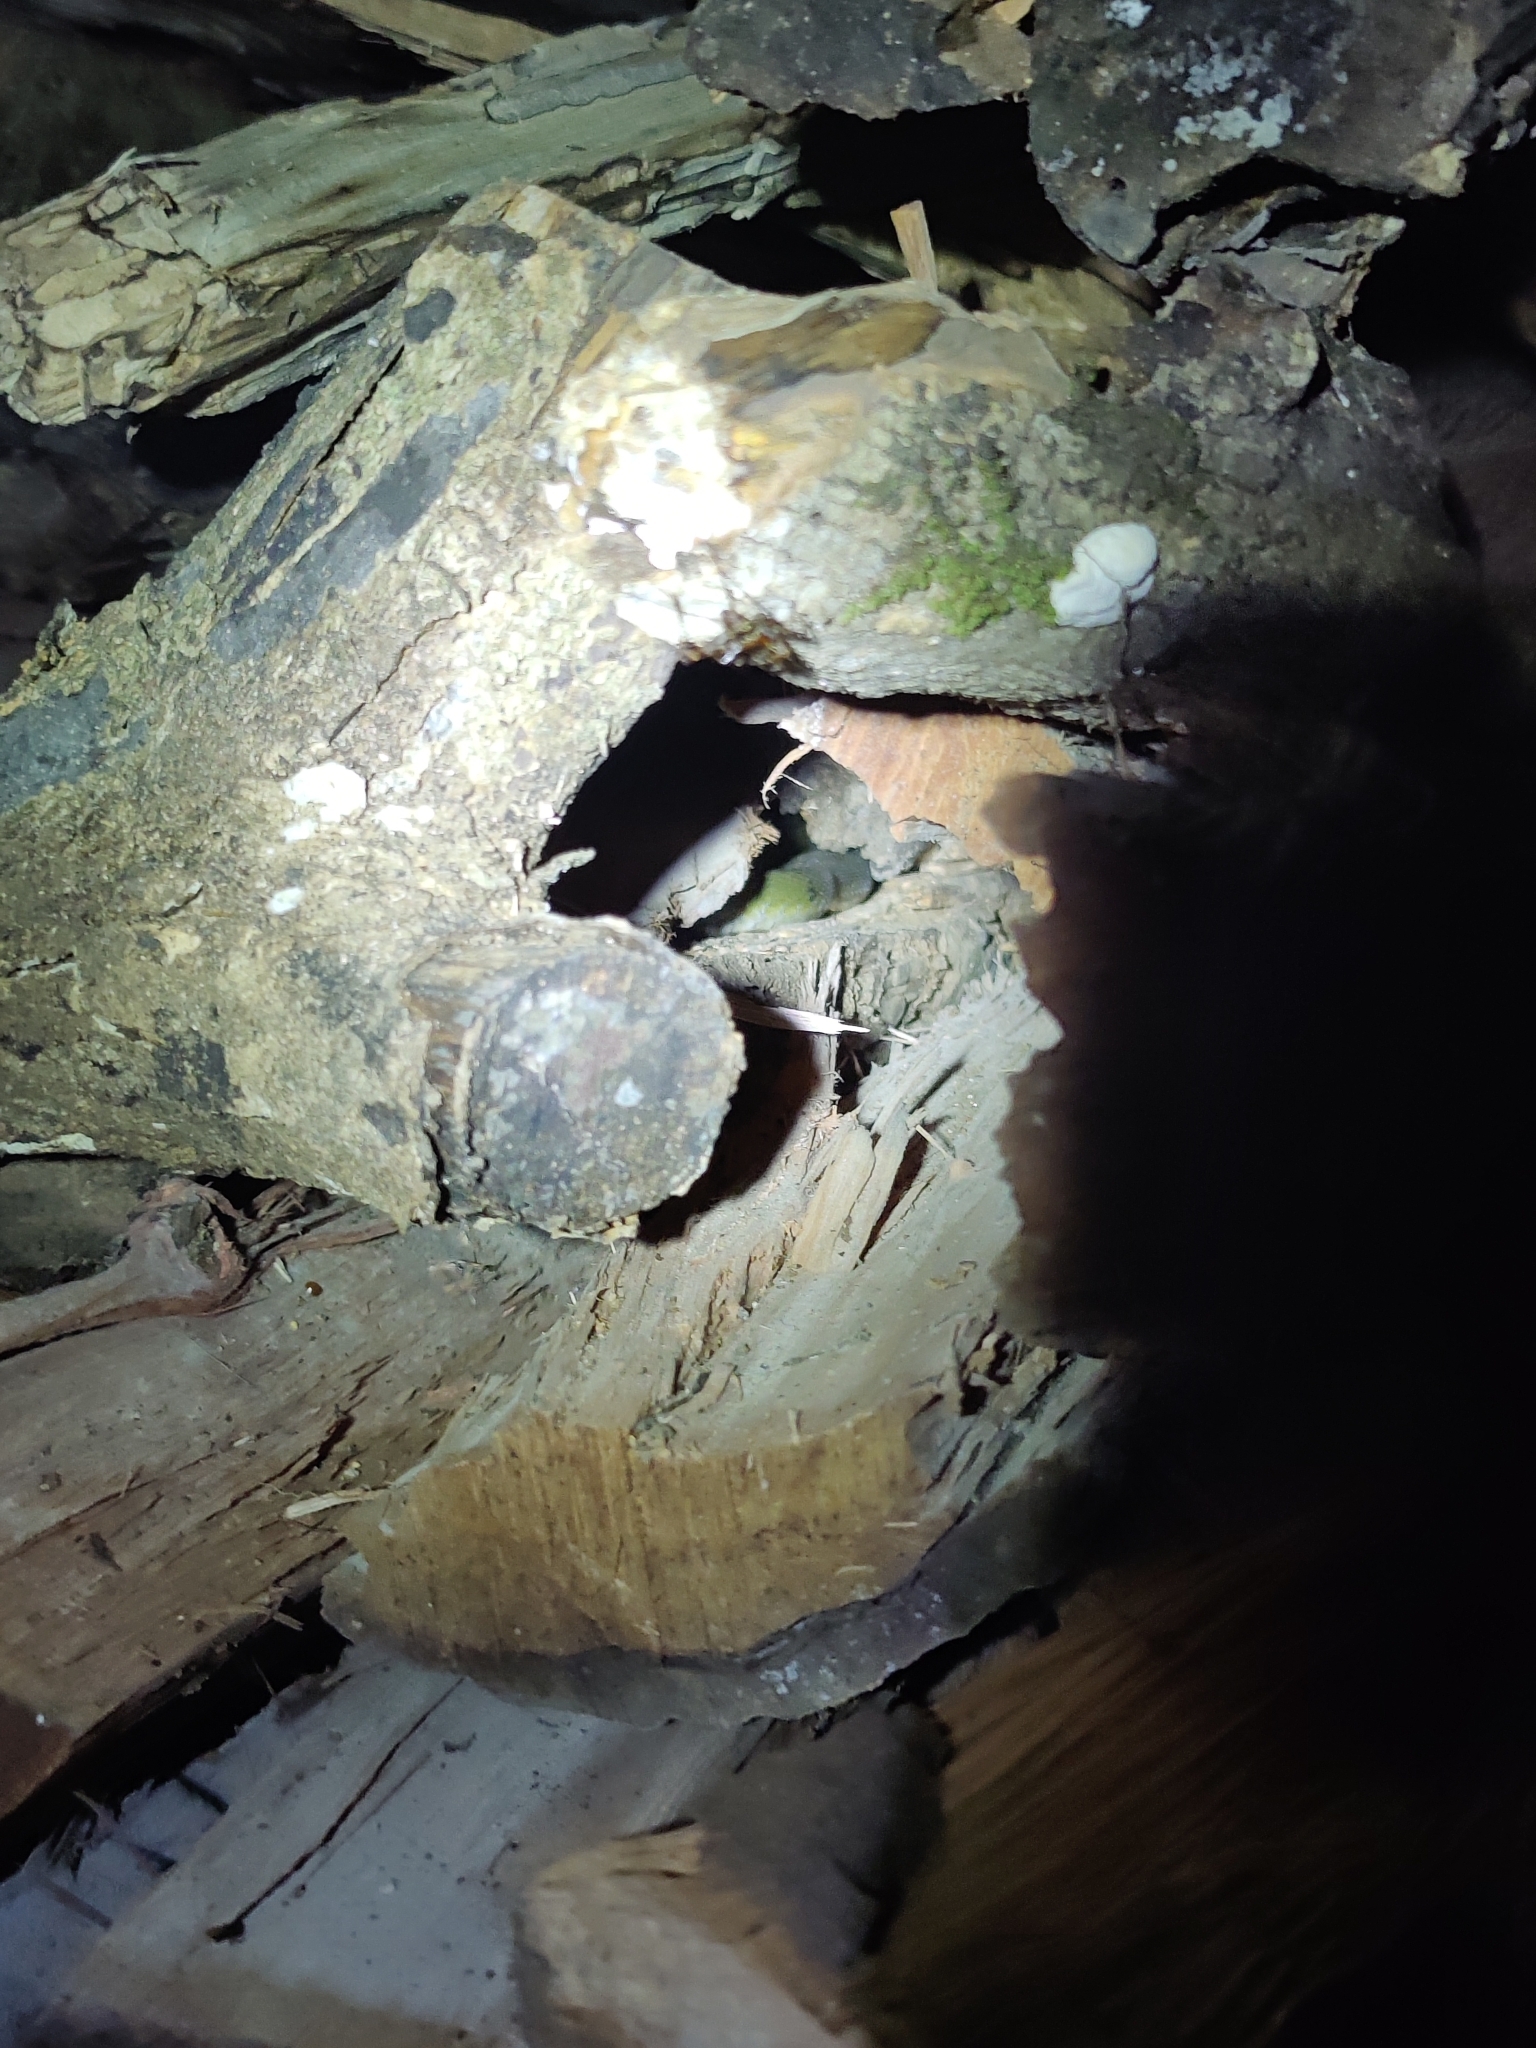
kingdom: Animalia
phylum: Chordata
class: Squamata
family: Colubridae
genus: Rhabdophis
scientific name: Rhabdophis plumbicolor
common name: Green keelback
